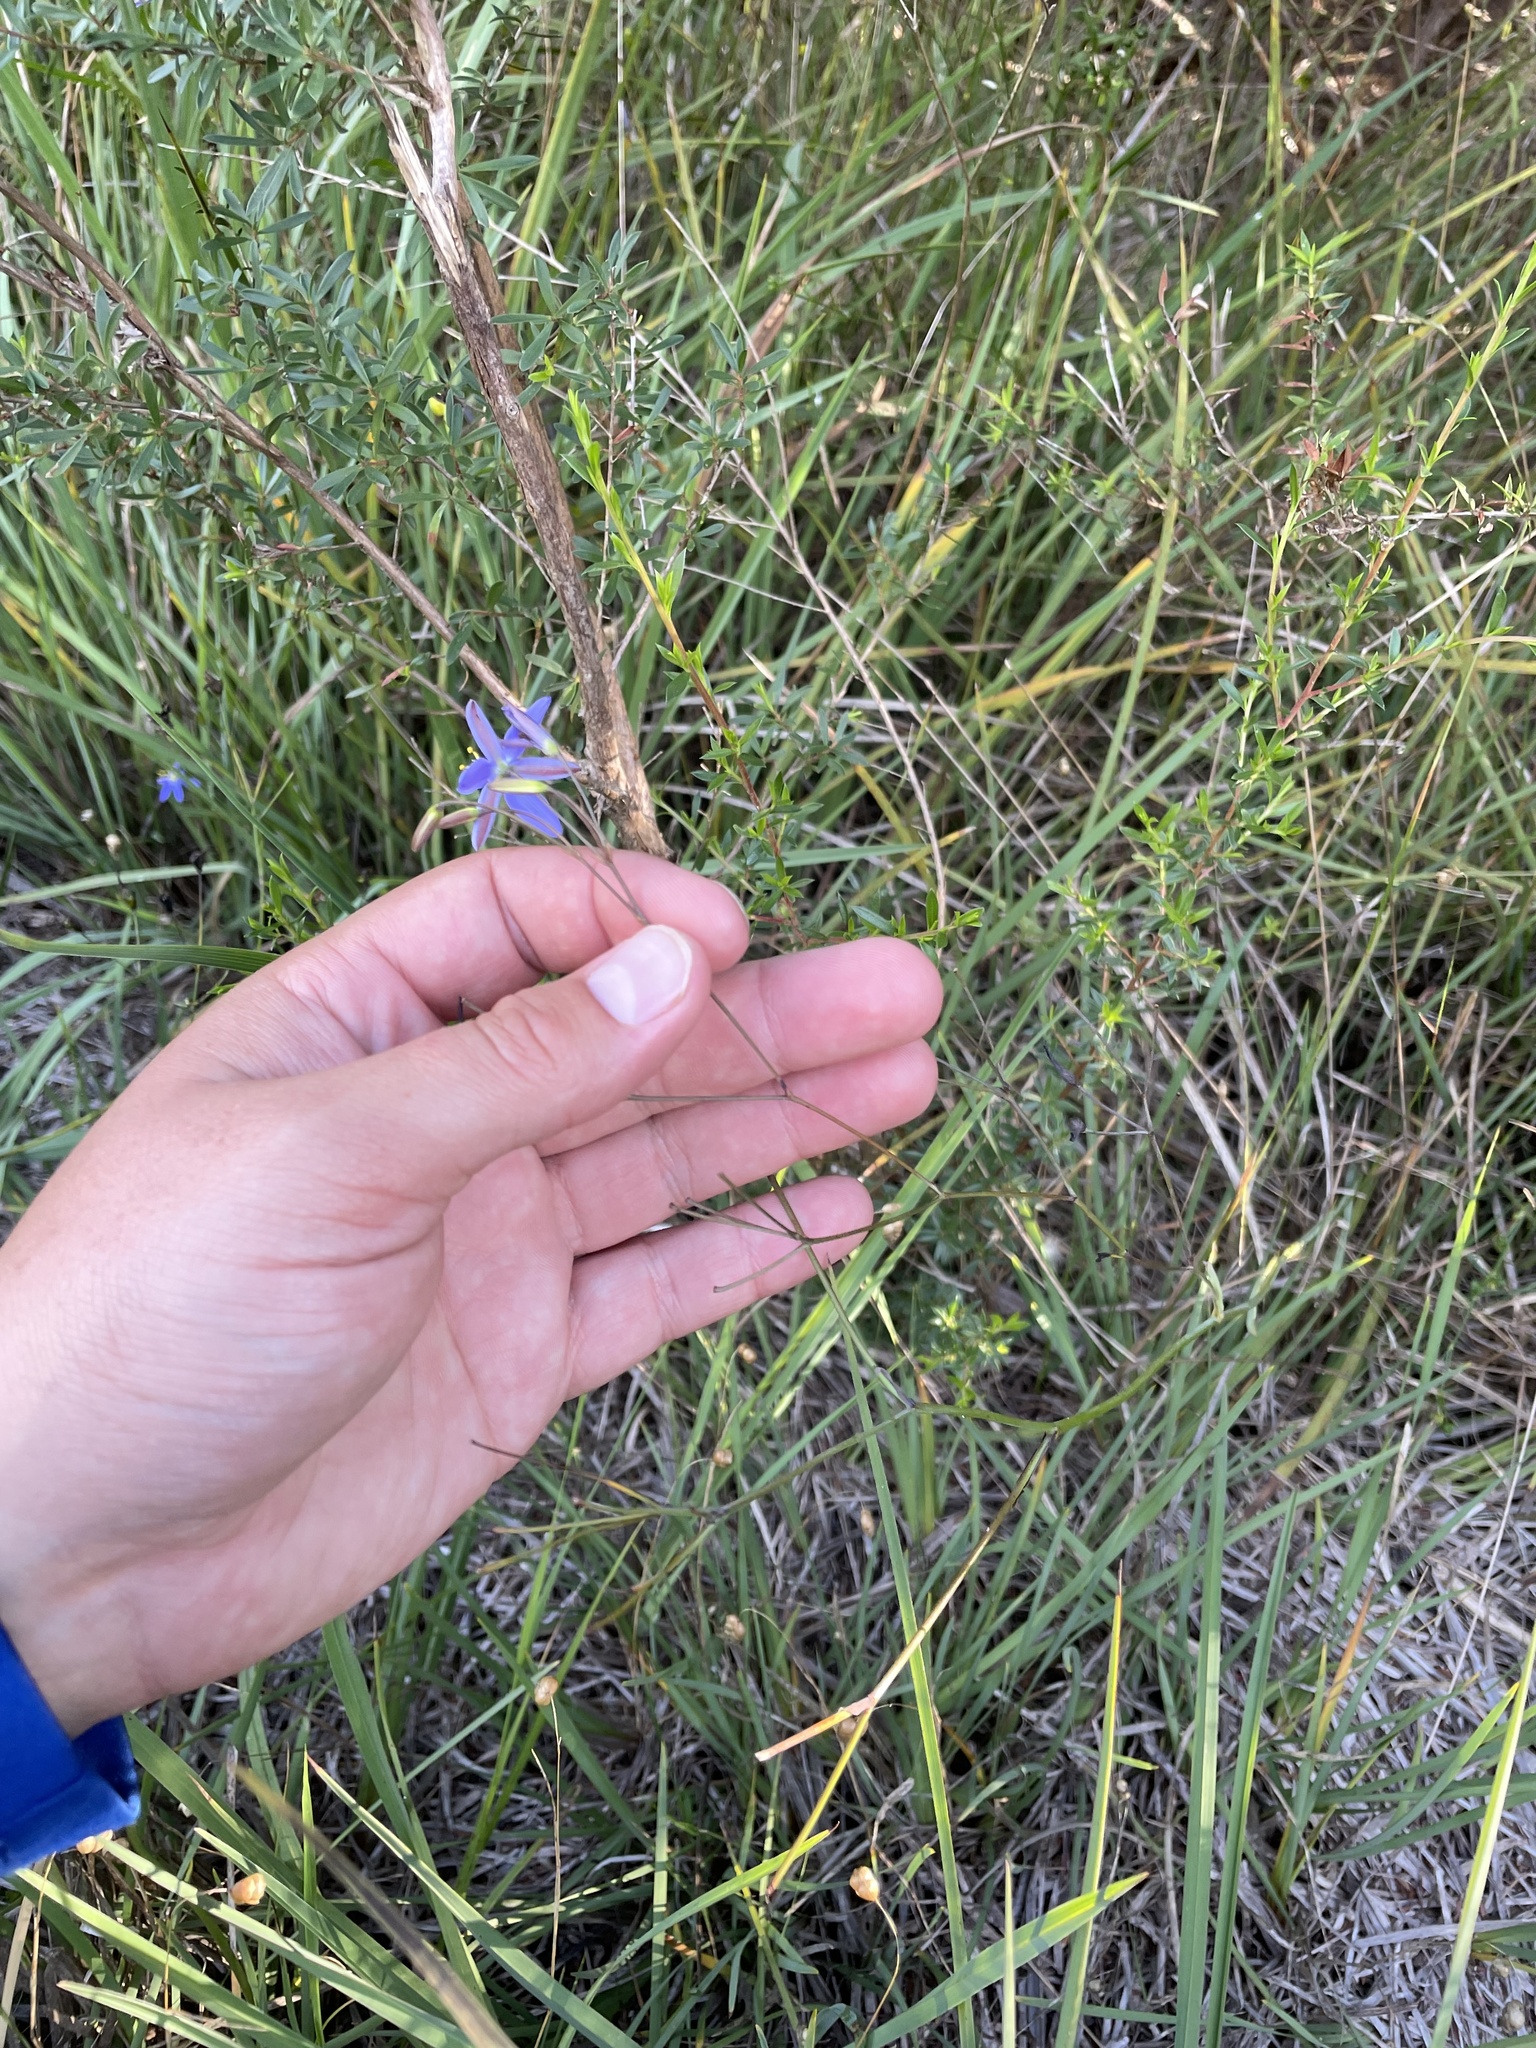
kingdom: Plantae
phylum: Tracheophyta
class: Liliopsida
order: Asparagales
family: Asphodelaceae
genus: Thelionema
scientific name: Thelionema caespitosum
